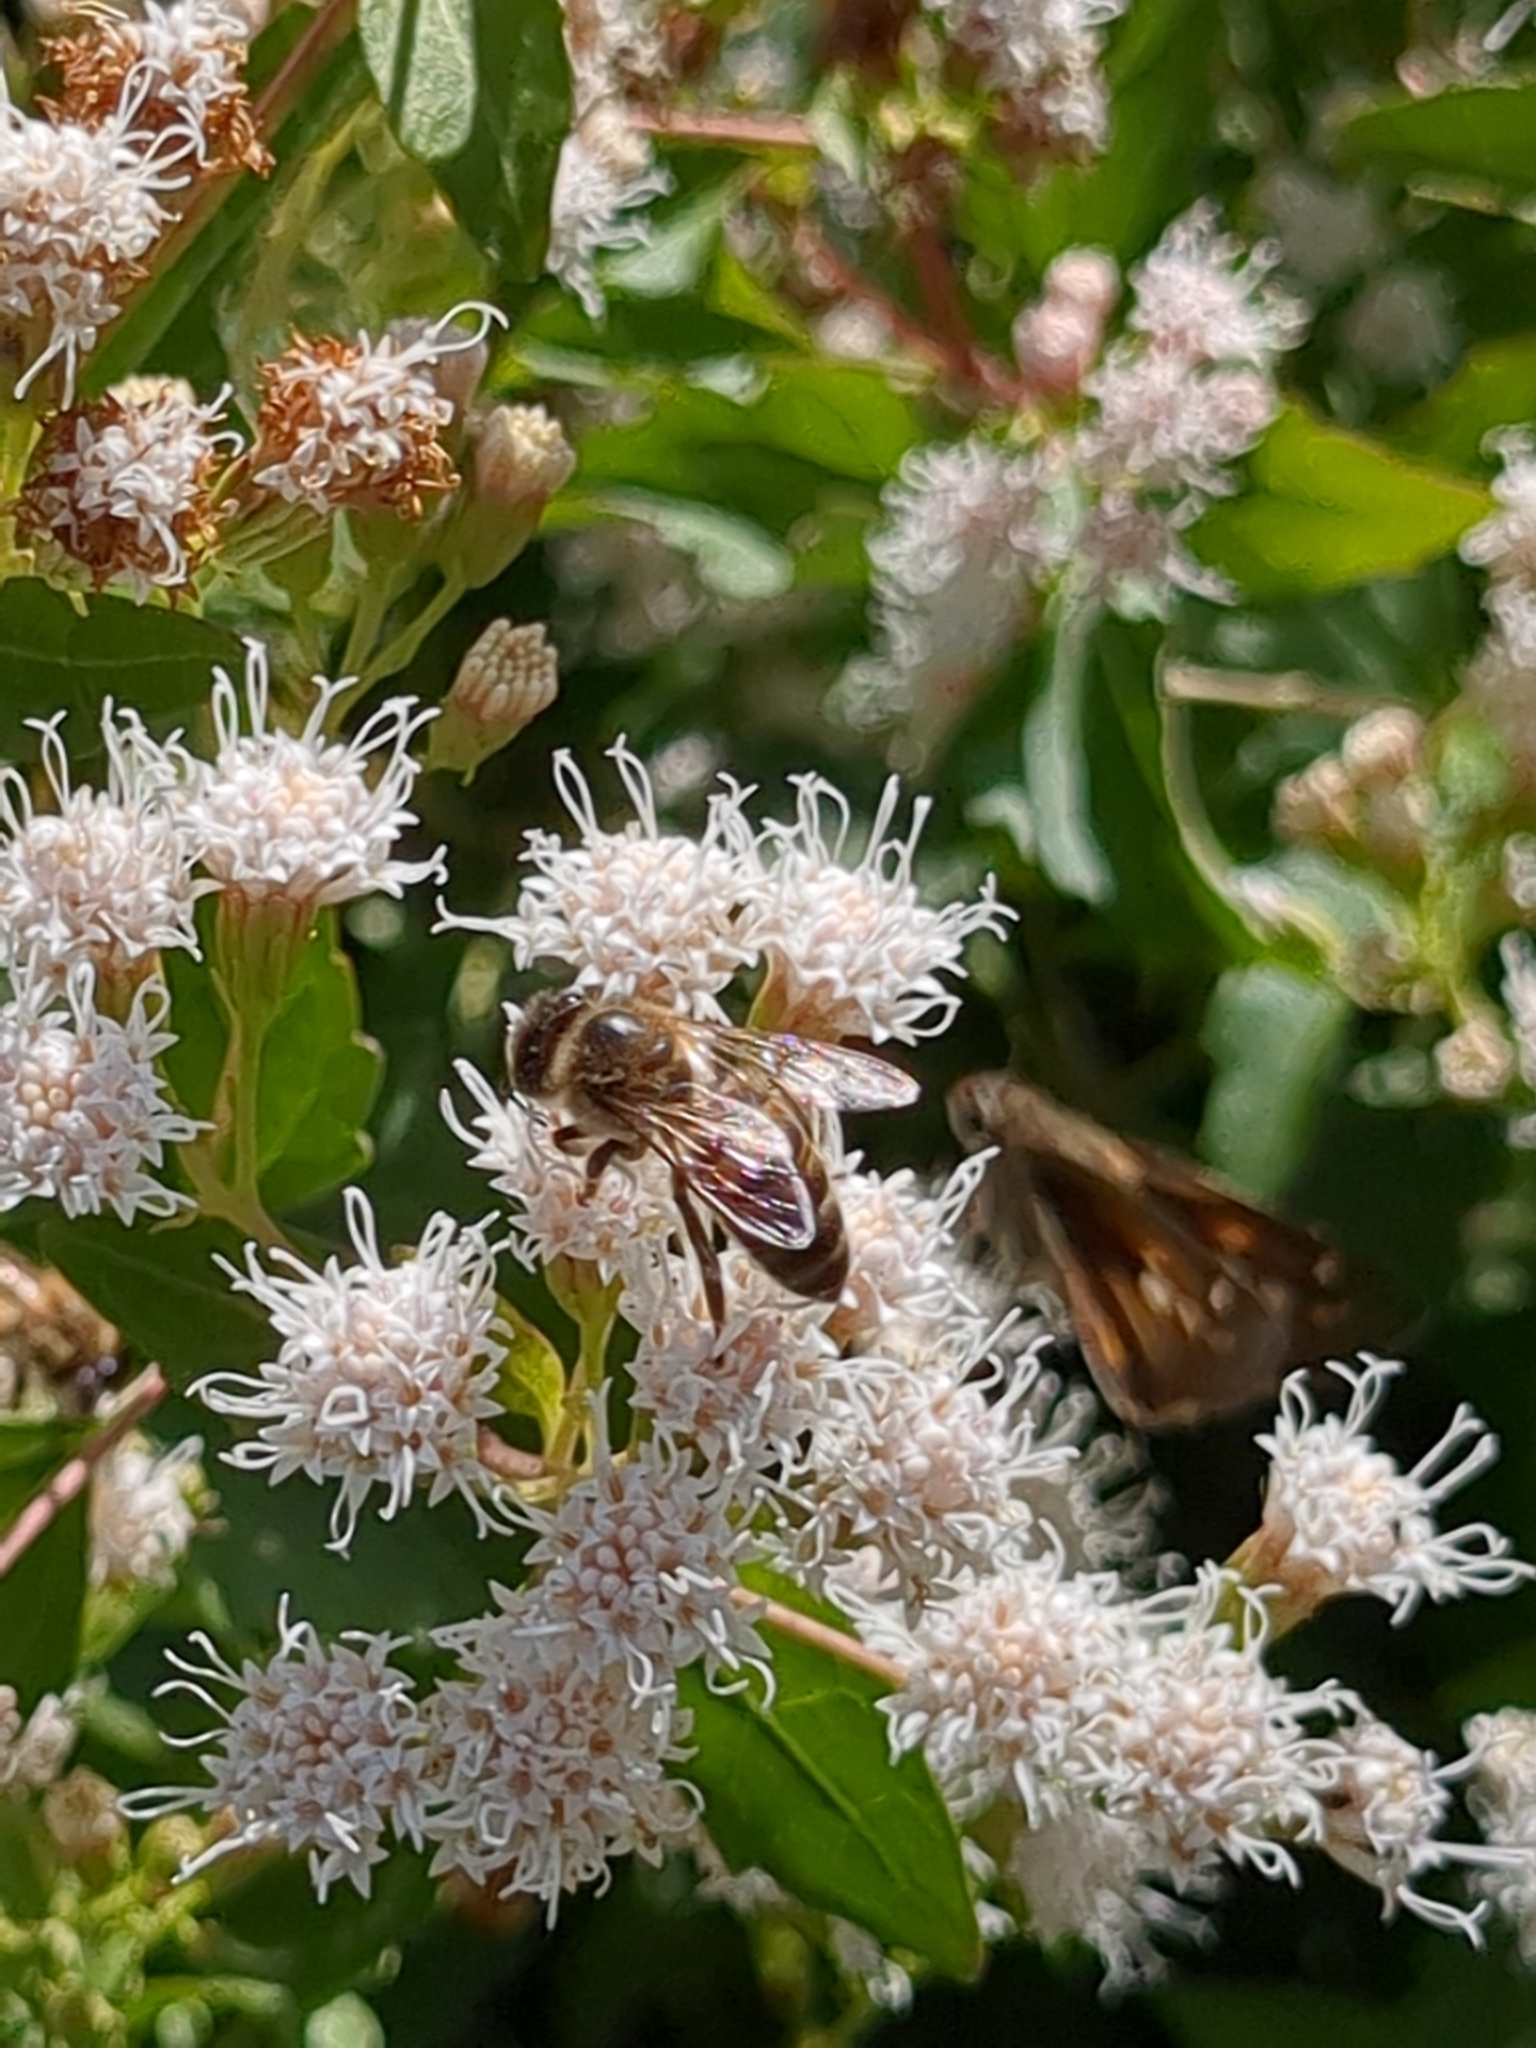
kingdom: Animalia
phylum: Arthropoda
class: Insecta
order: Hymenoptera
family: Apidae
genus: Apis
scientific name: Apis mellifera
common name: Honey bee
